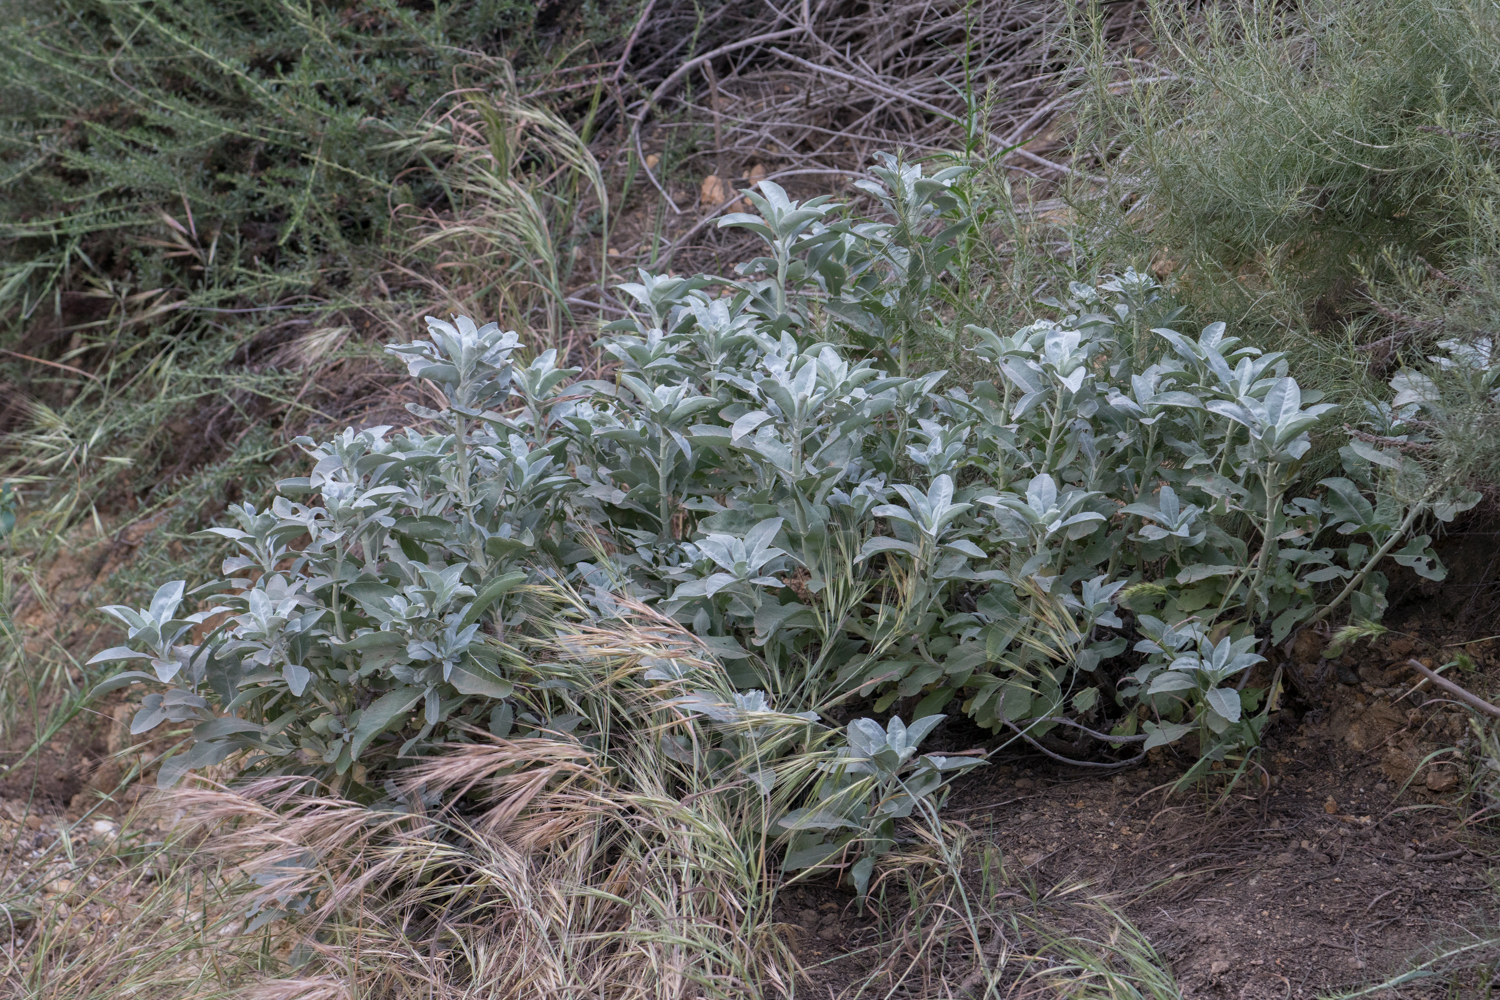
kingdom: Plantae
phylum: Tracheophyta
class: Magnoliopsida
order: Lamiales
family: Lamiaceae
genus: Salvia
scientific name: Salvia apiana
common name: White sage
